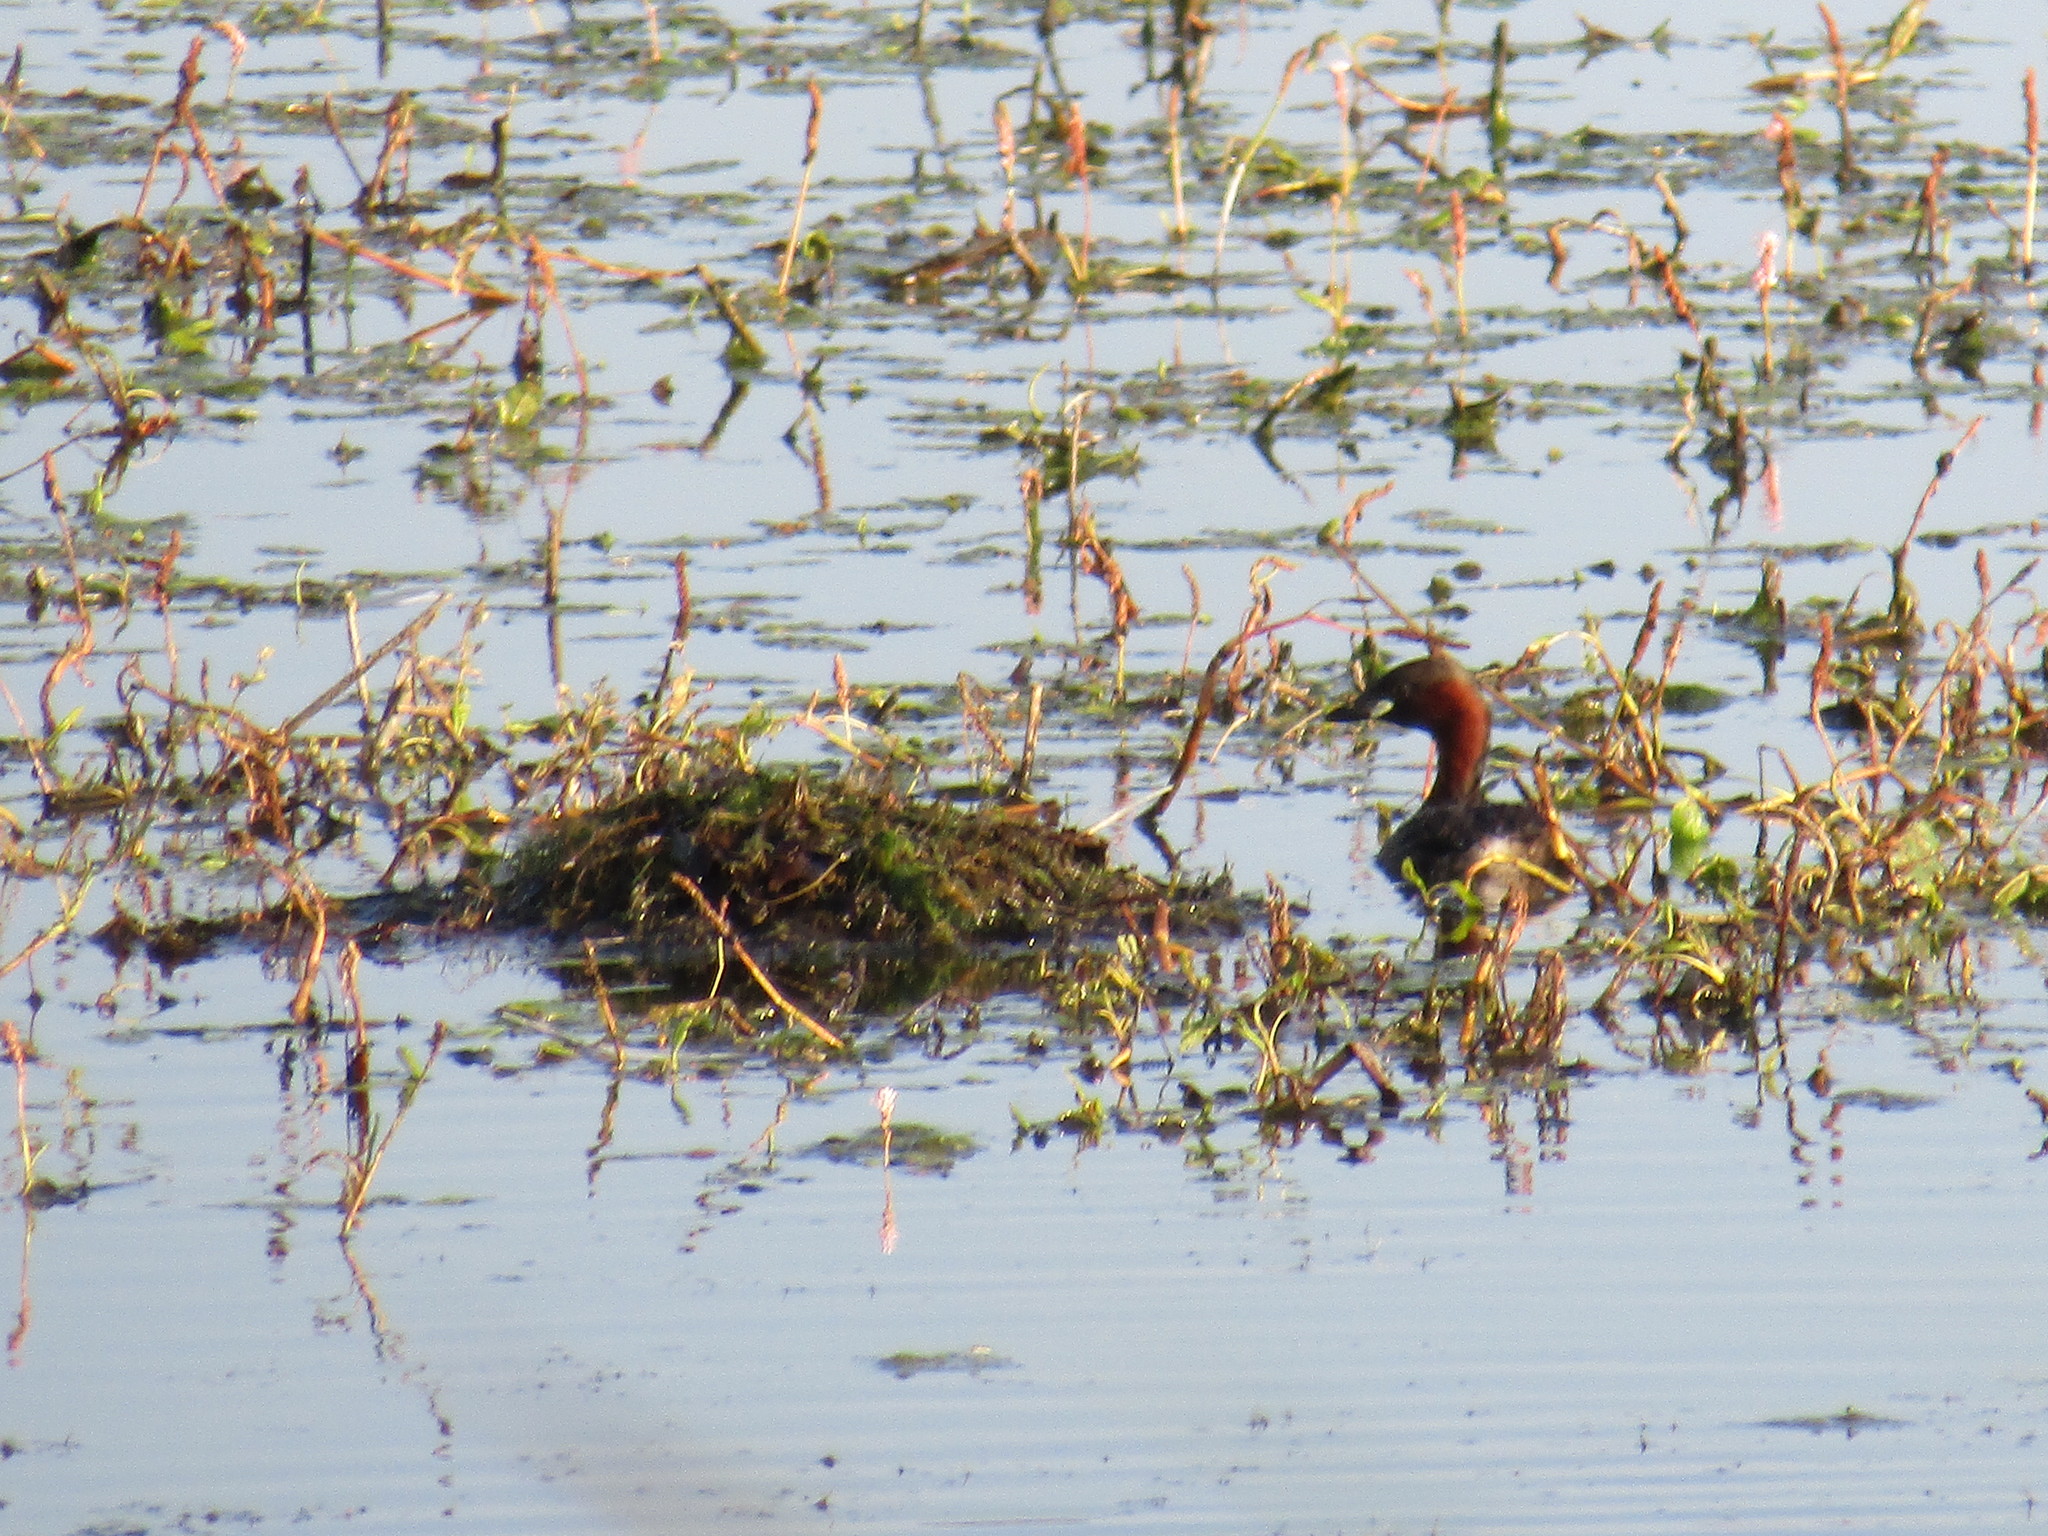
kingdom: Animalia
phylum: Chordata
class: Aves
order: Podicipediformes
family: Podicipedidae
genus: Tachybaptus
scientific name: Tachybaptus ruficollis
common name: Little grebe
